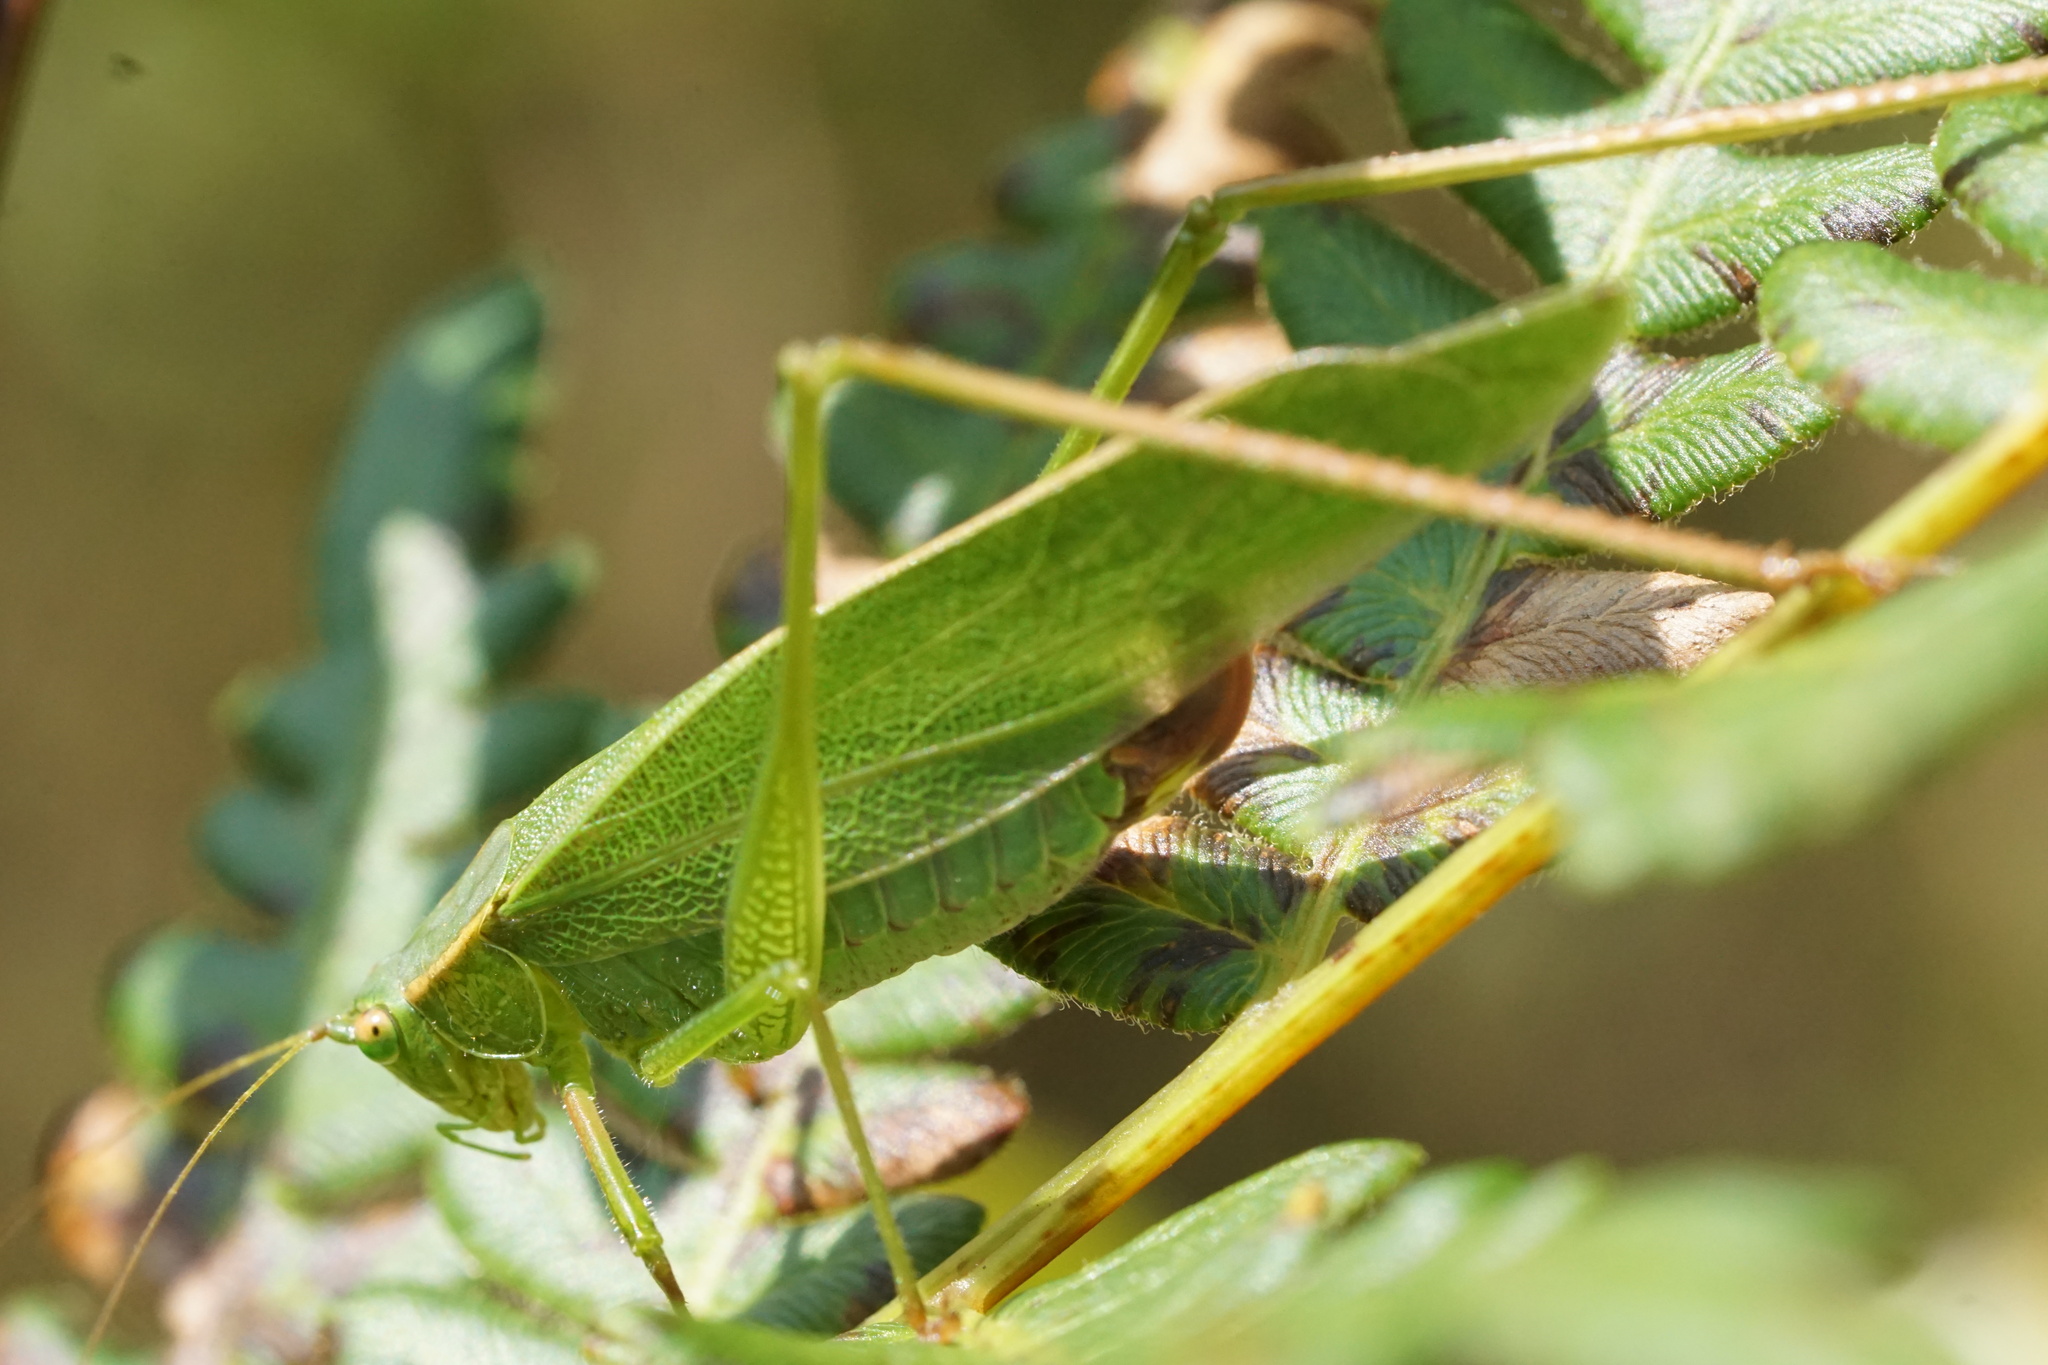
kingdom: Animalia
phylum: Arthropoda
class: Insecta
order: Orthoptera
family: Tettigoniidae
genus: Scudderia
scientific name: Scudderia furcata
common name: Fork-tailed bush katydid
